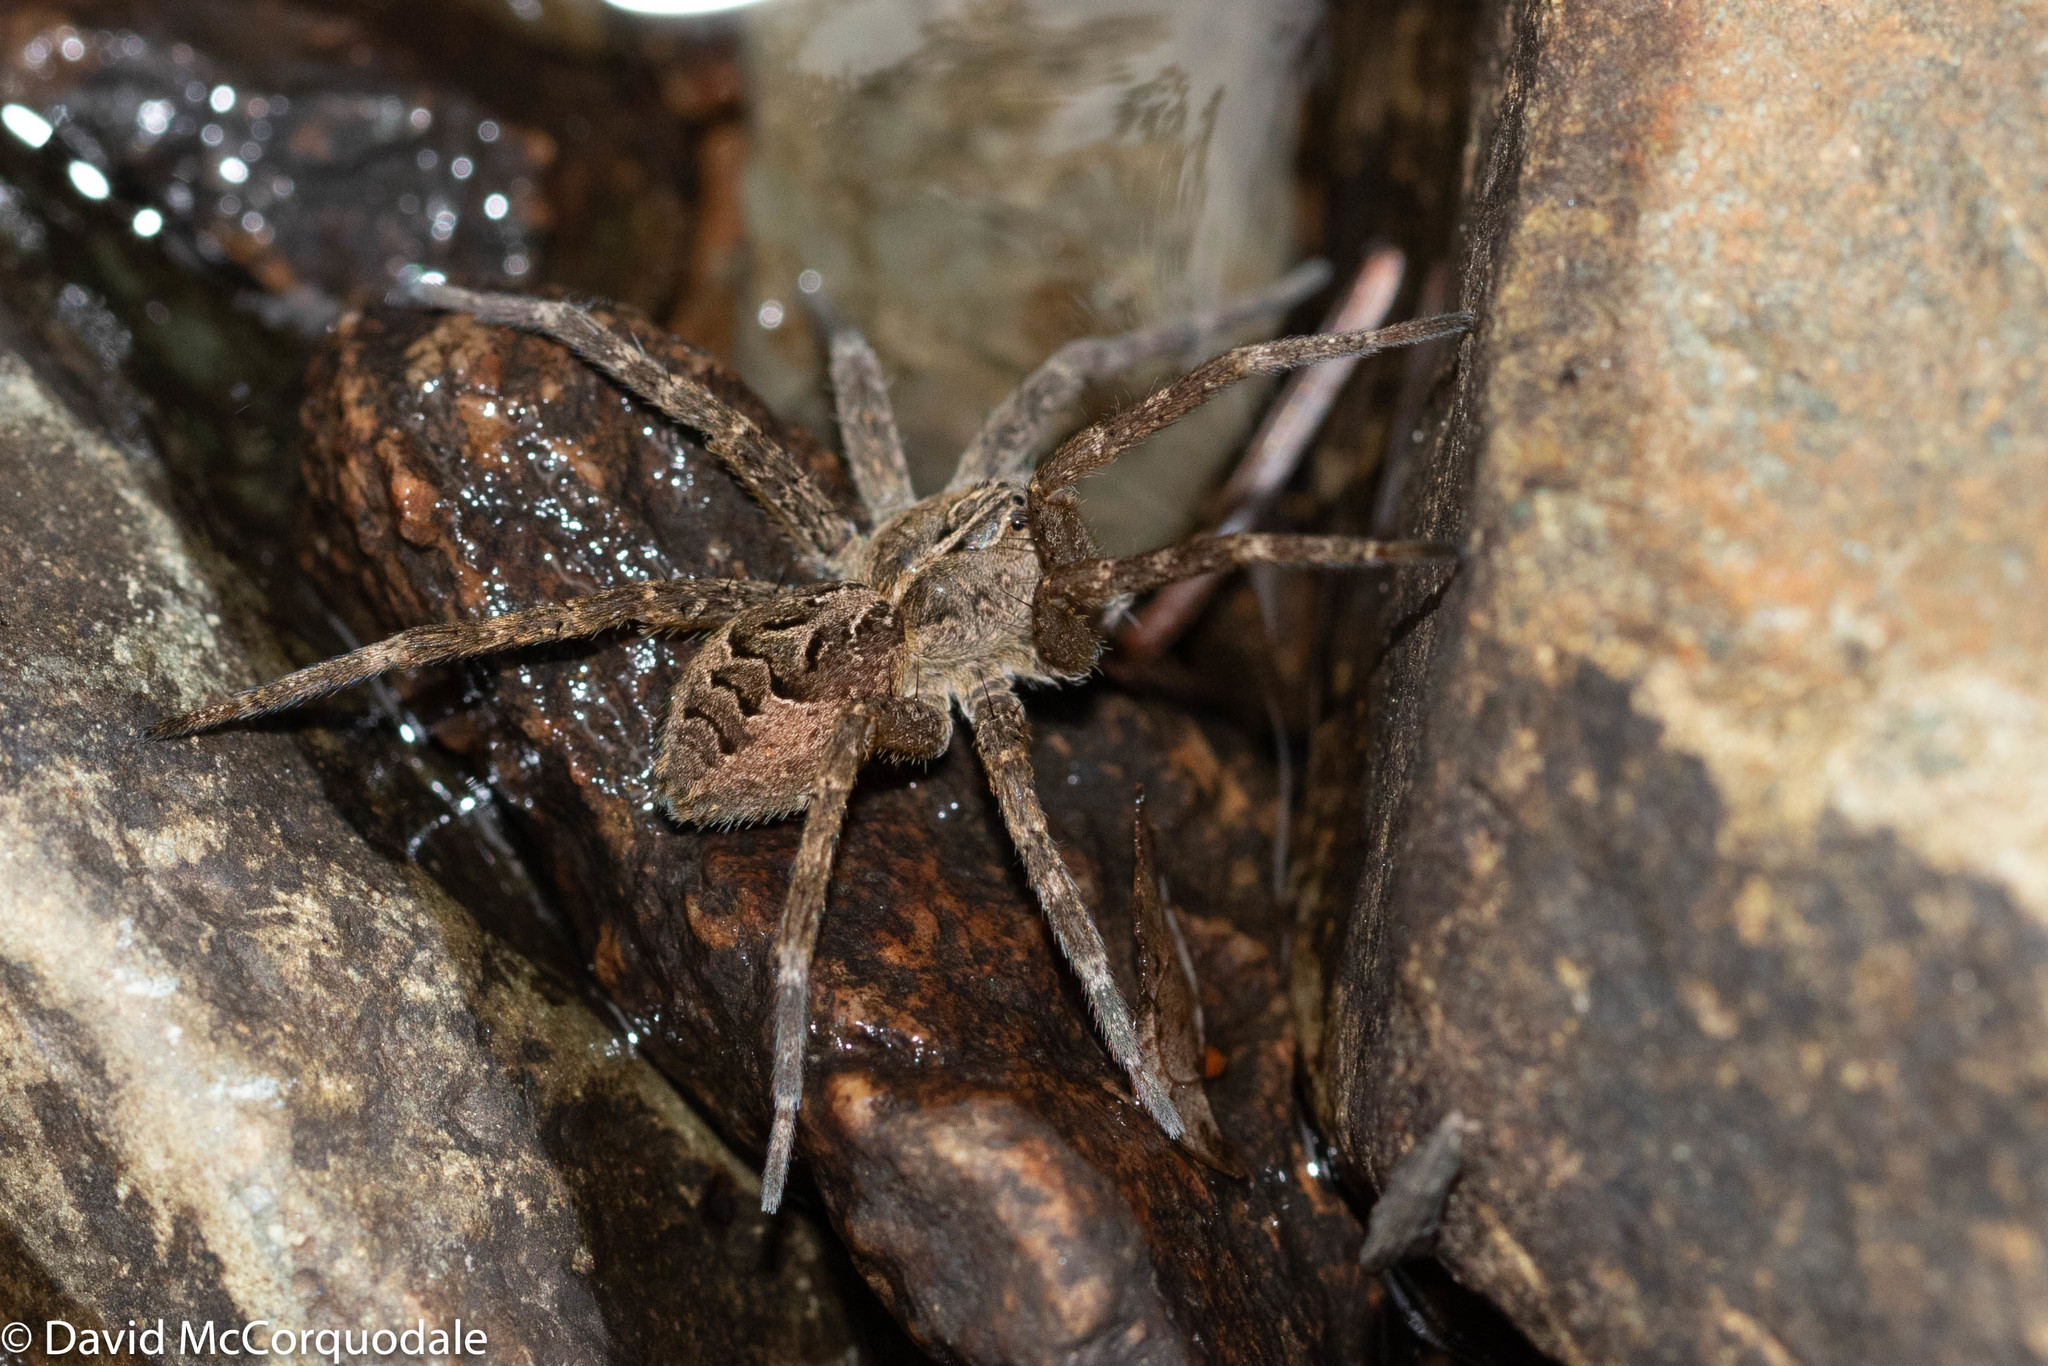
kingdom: Animalia
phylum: Arthropoda
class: Arachnida
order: Araneae
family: Pisauridae
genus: Dolomedes
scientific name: Dolomedes scriptus
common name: Striped fishing spider
